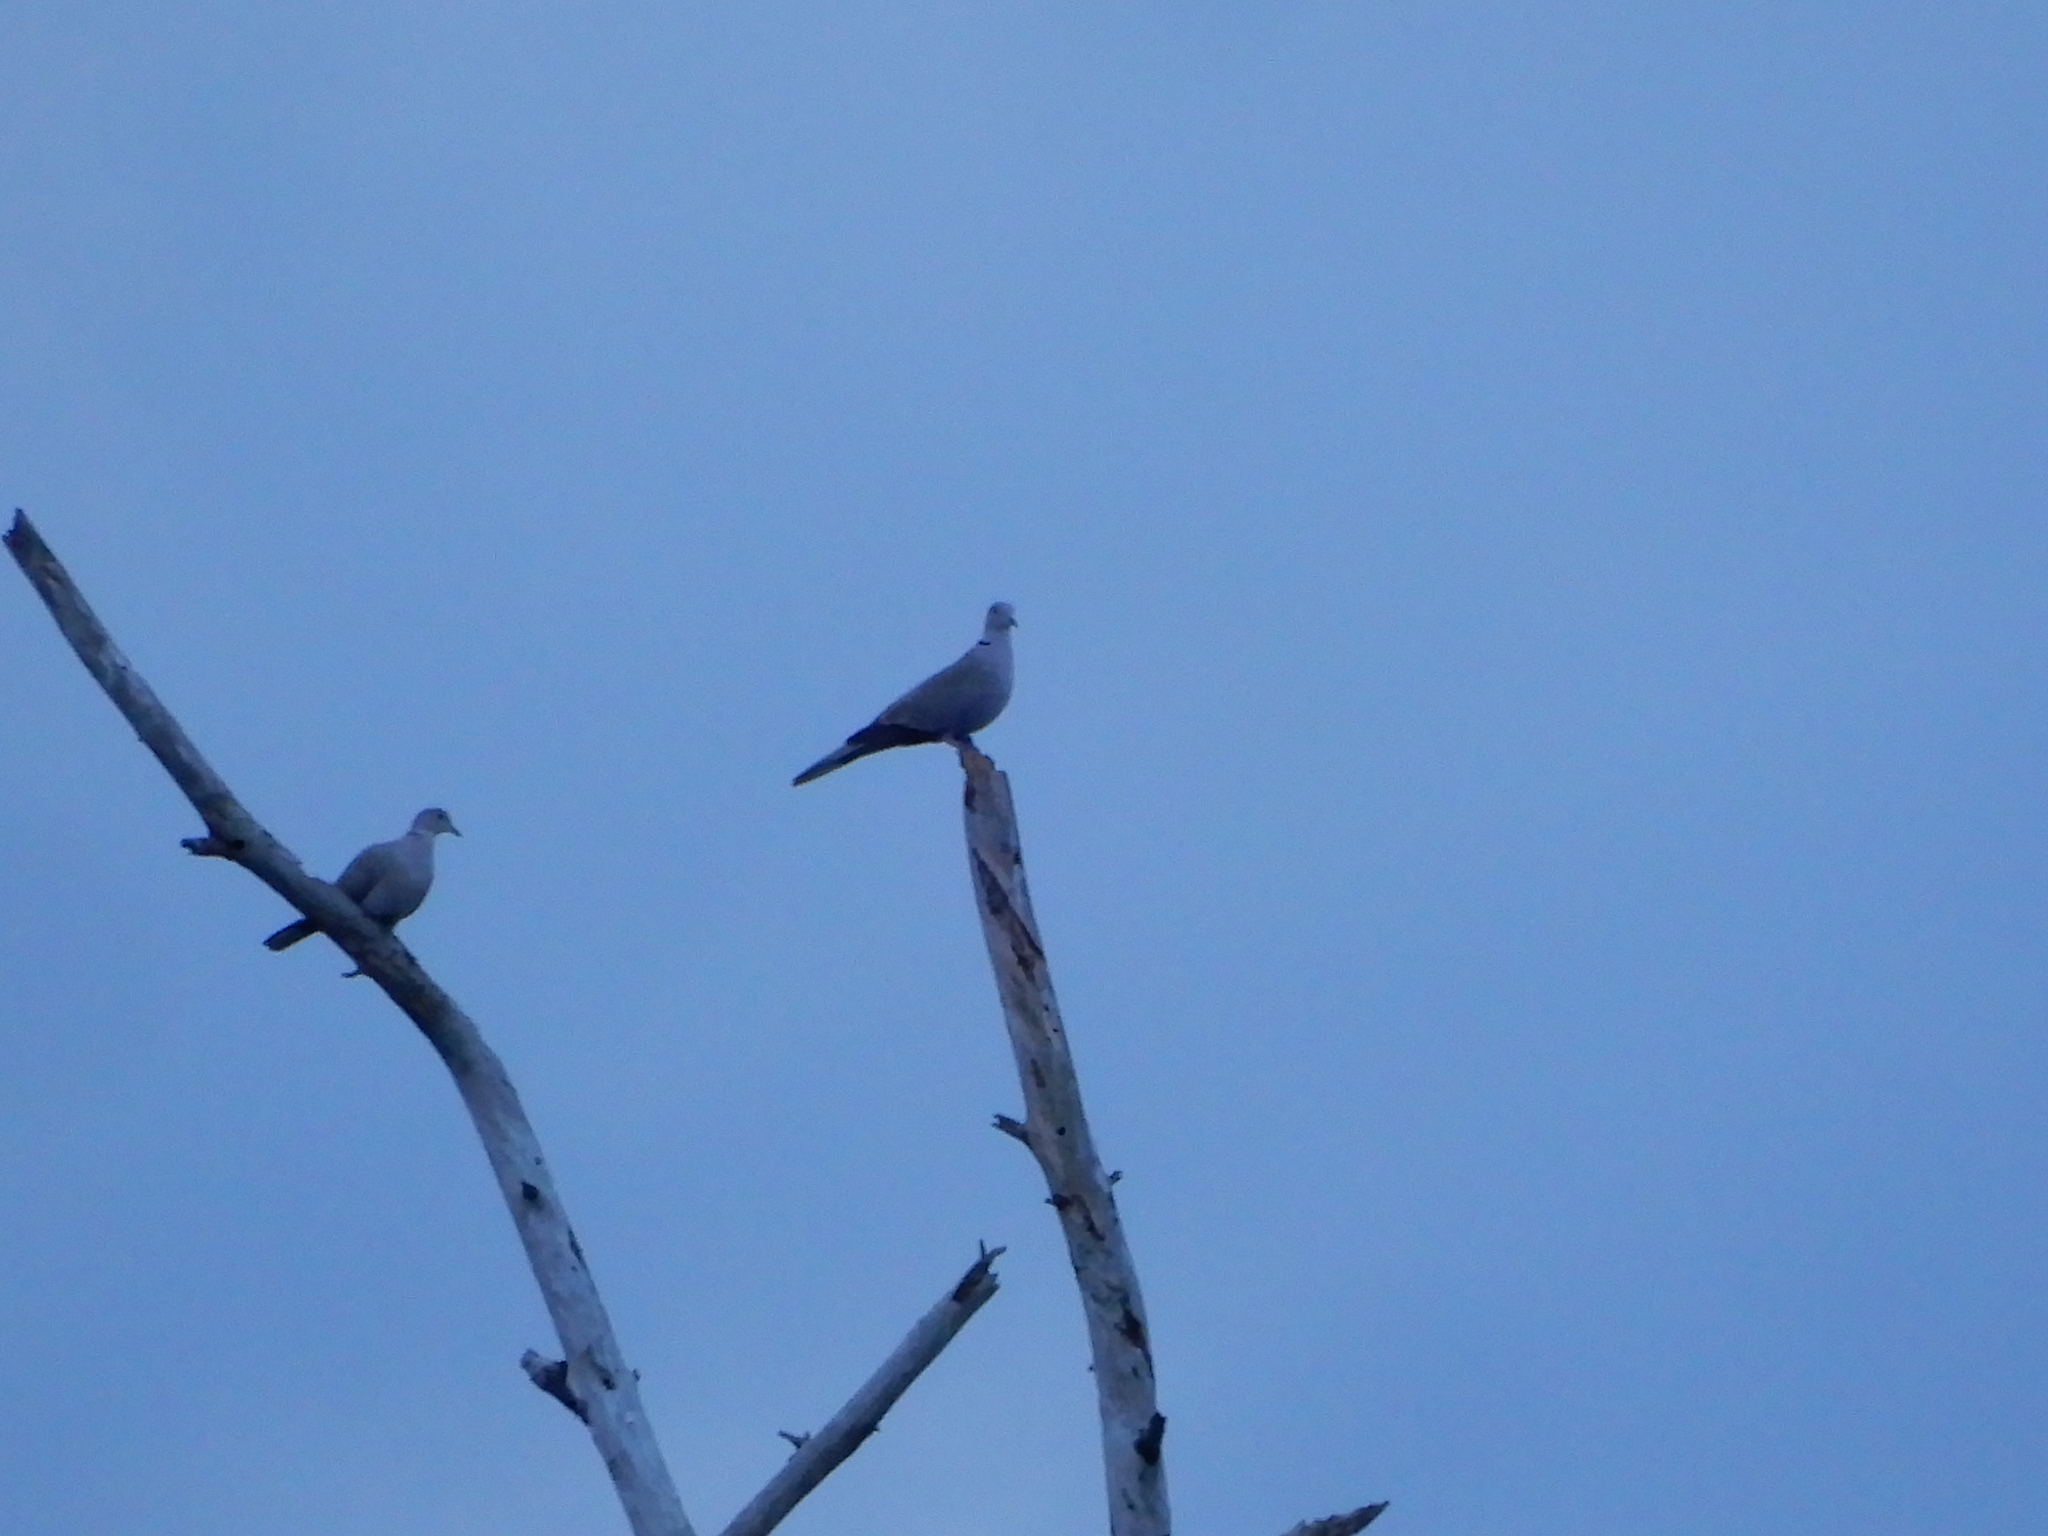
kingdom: Animalia
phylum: Chordata
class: Aves
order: Columbiformes
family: Columbidae
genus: Streptopelia
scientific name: Streptopelia decaocto
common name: Eurasian collared dove
